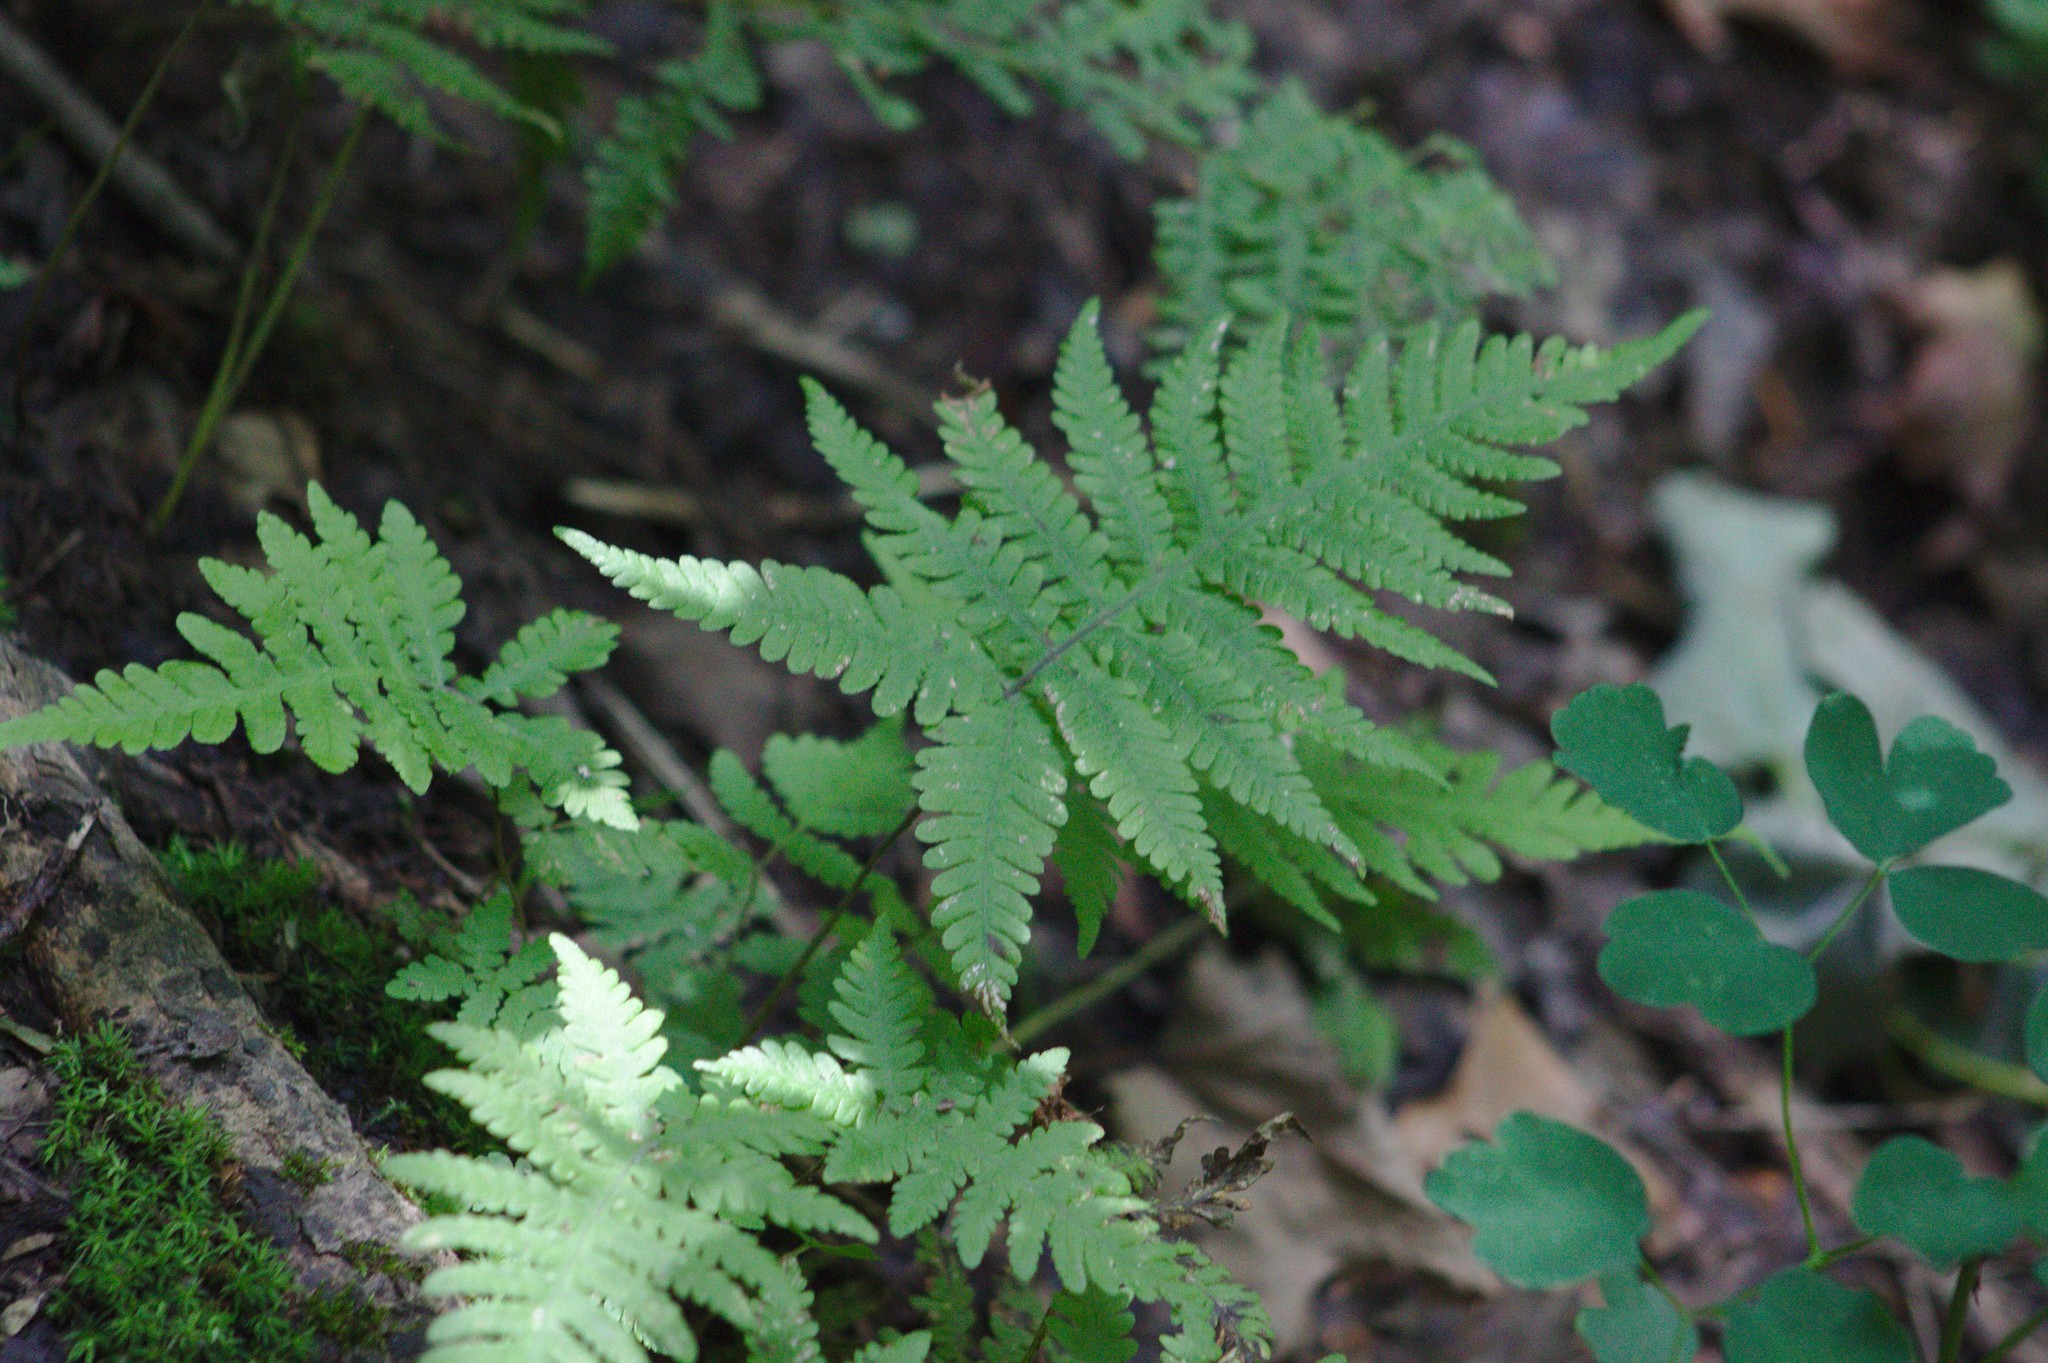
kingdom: Plantae
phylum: Tracheophyta
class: Polypodiopsida
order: Polypodiales
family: Thelypteridaceae
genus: Phegopteris
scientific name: Phegopteris connectilis
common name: Beech fern
